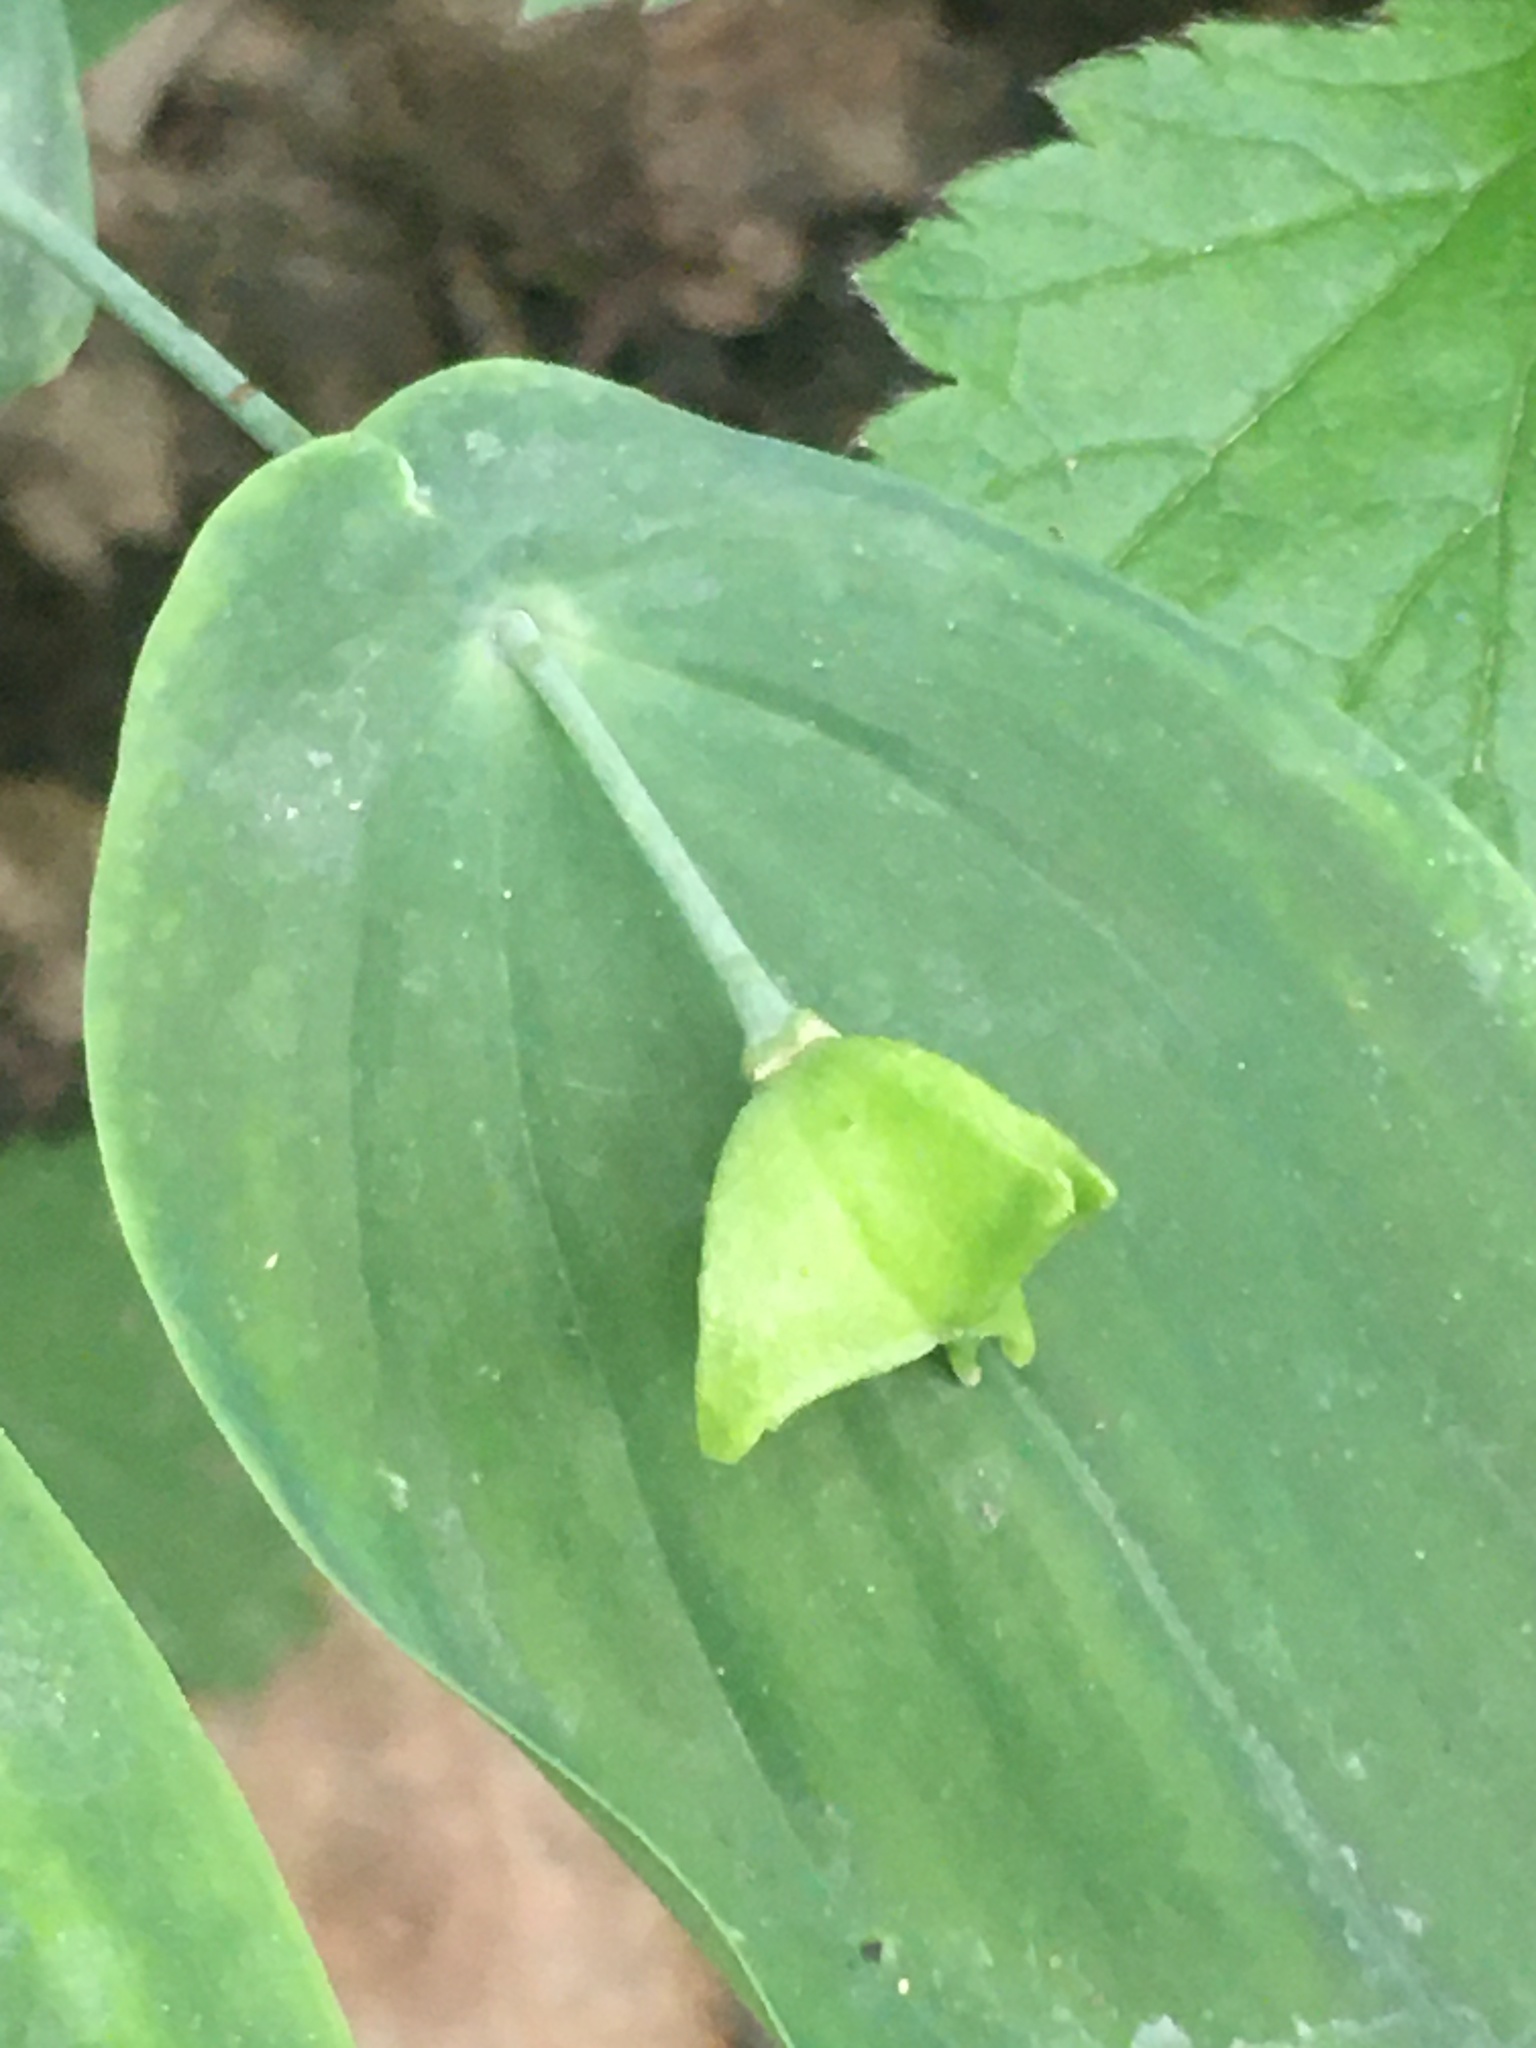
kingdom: Plantae
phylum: Tracheophyta
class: Liliopsida
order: Liliales
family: Colchicaceae
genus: Uvularia
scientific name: Uvularia perfoliata
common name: Perfoliate bellwort
